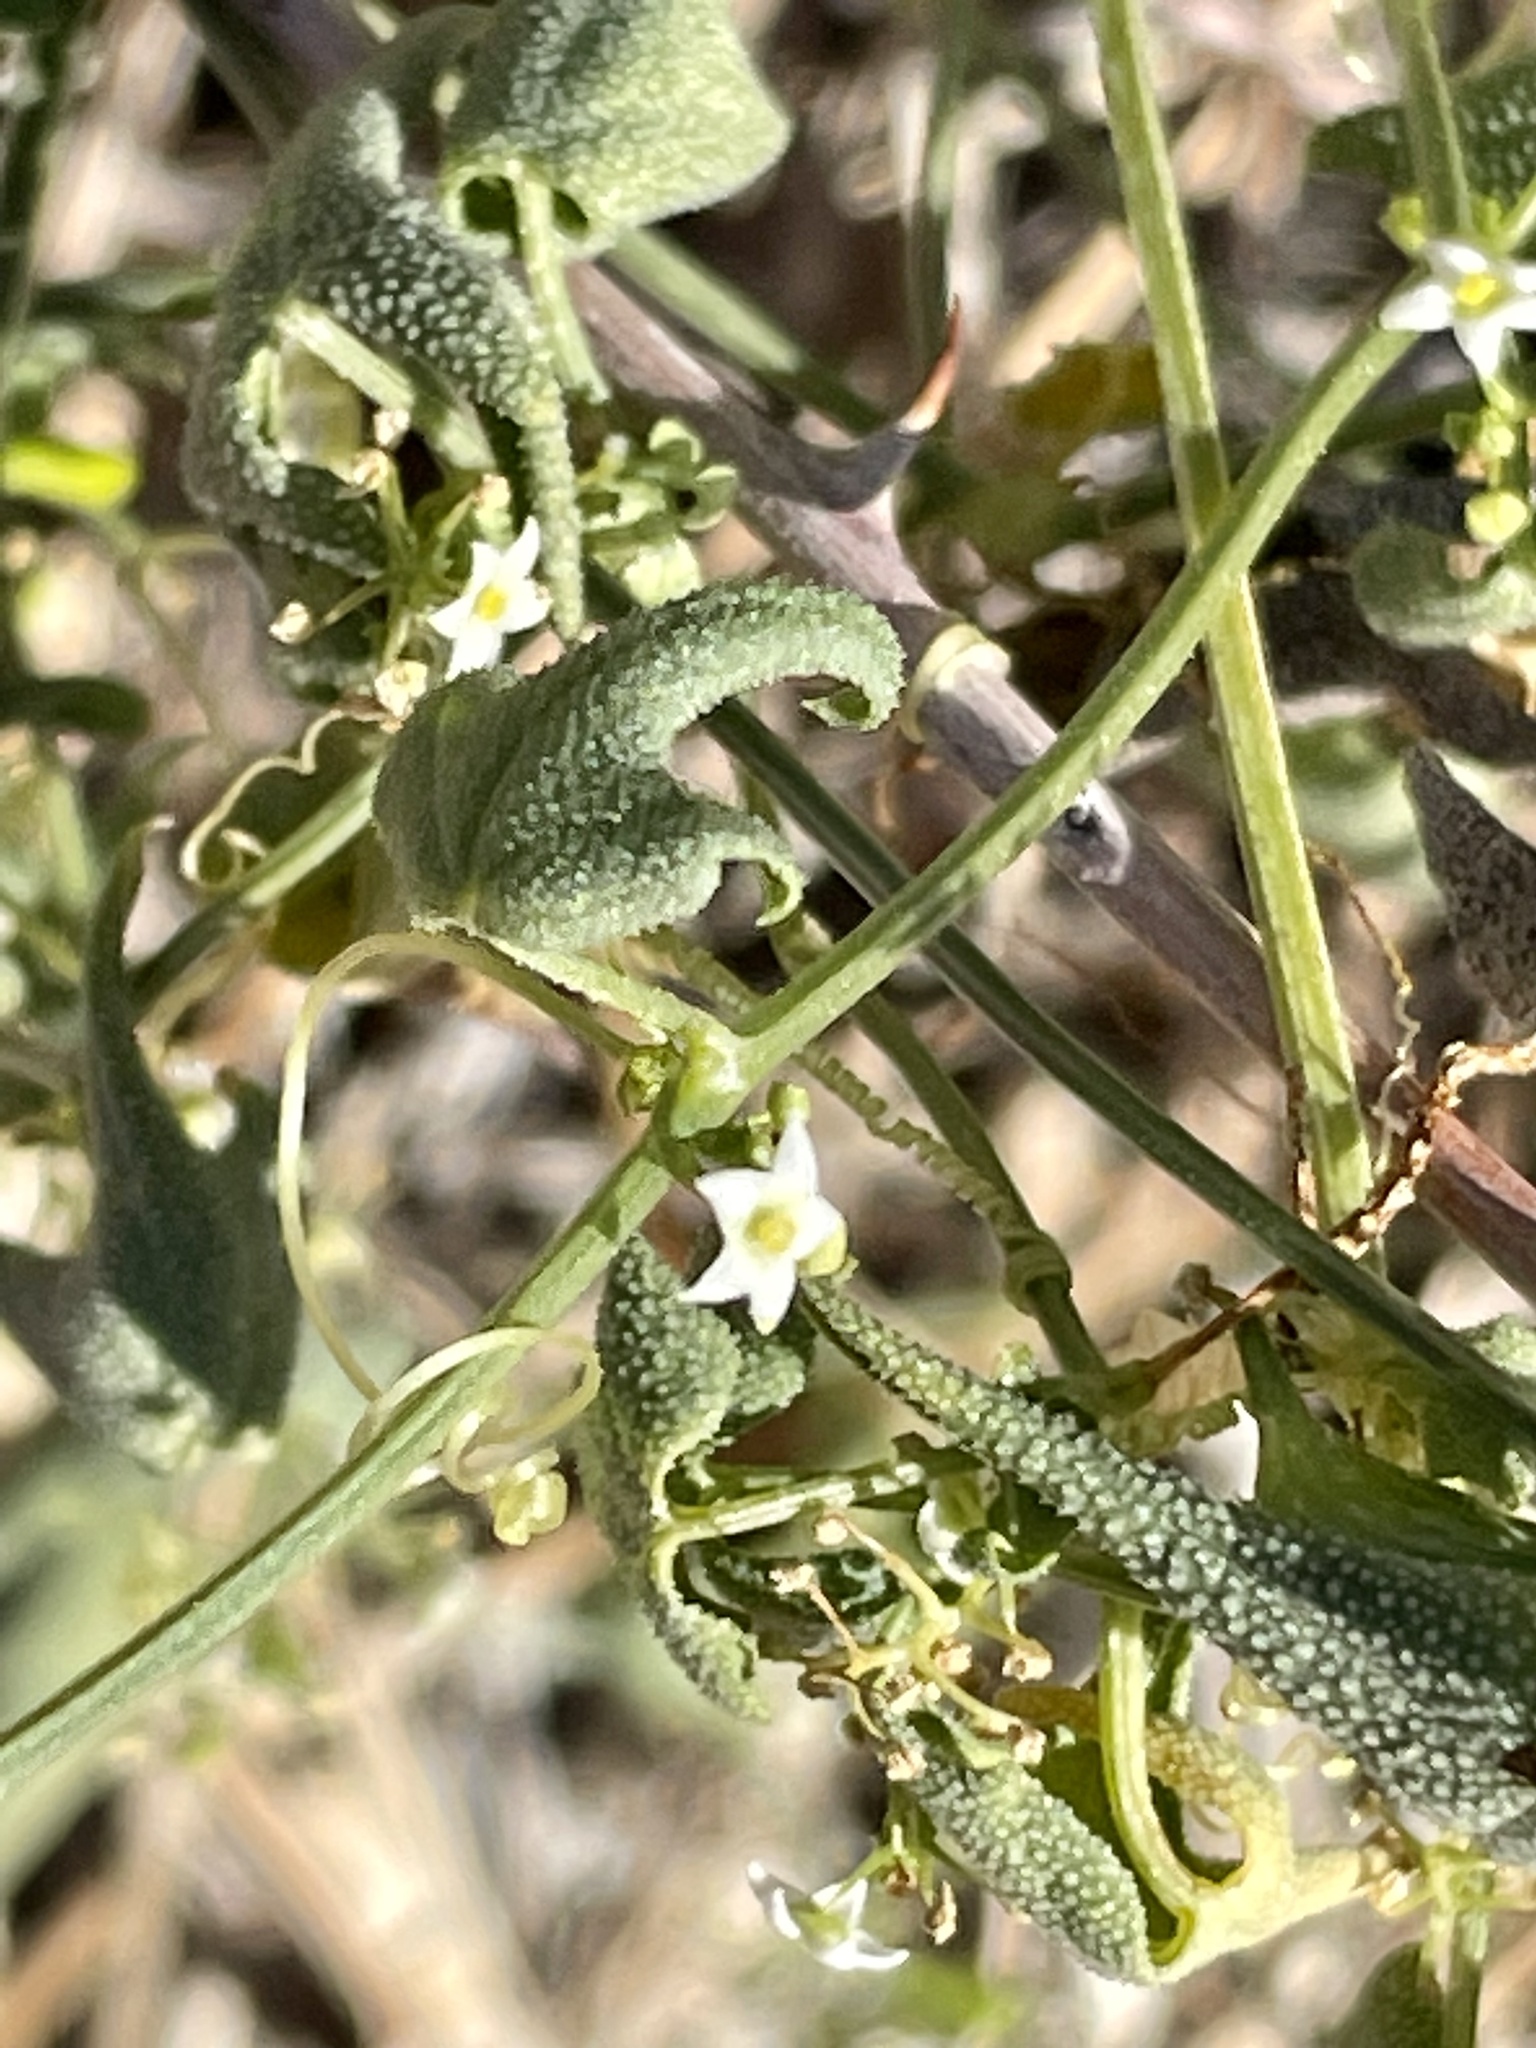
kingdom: Plantae
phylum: Tracheophyta
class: Magnoliopsida
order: Cucurbitales
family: Cucurbitaceae
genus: Echinopepon
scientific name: Echinopepon bigelovii
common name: Desert starvine
